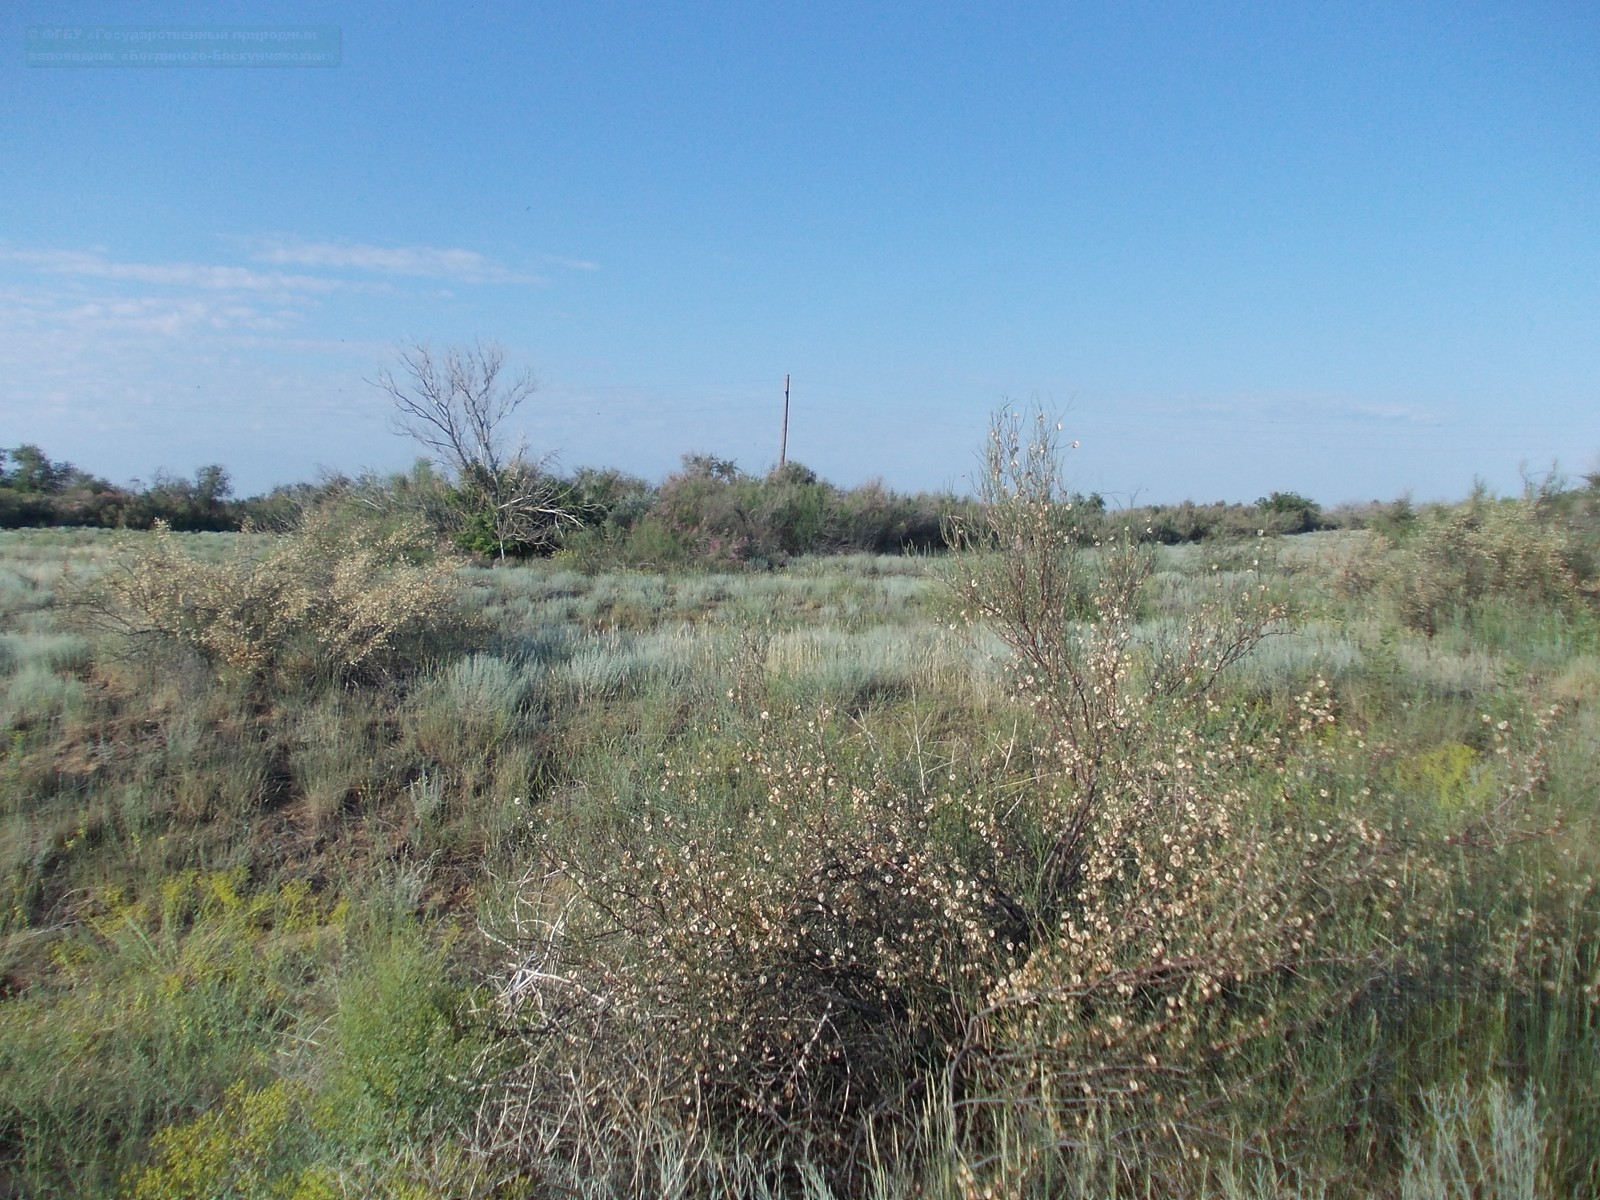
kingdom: Plantae
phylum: Tracheophyta
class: Magnoliopsida
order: Caryophyllales
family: Polygonaceae
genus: Calligonum
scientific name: Calligonum aphyllum
